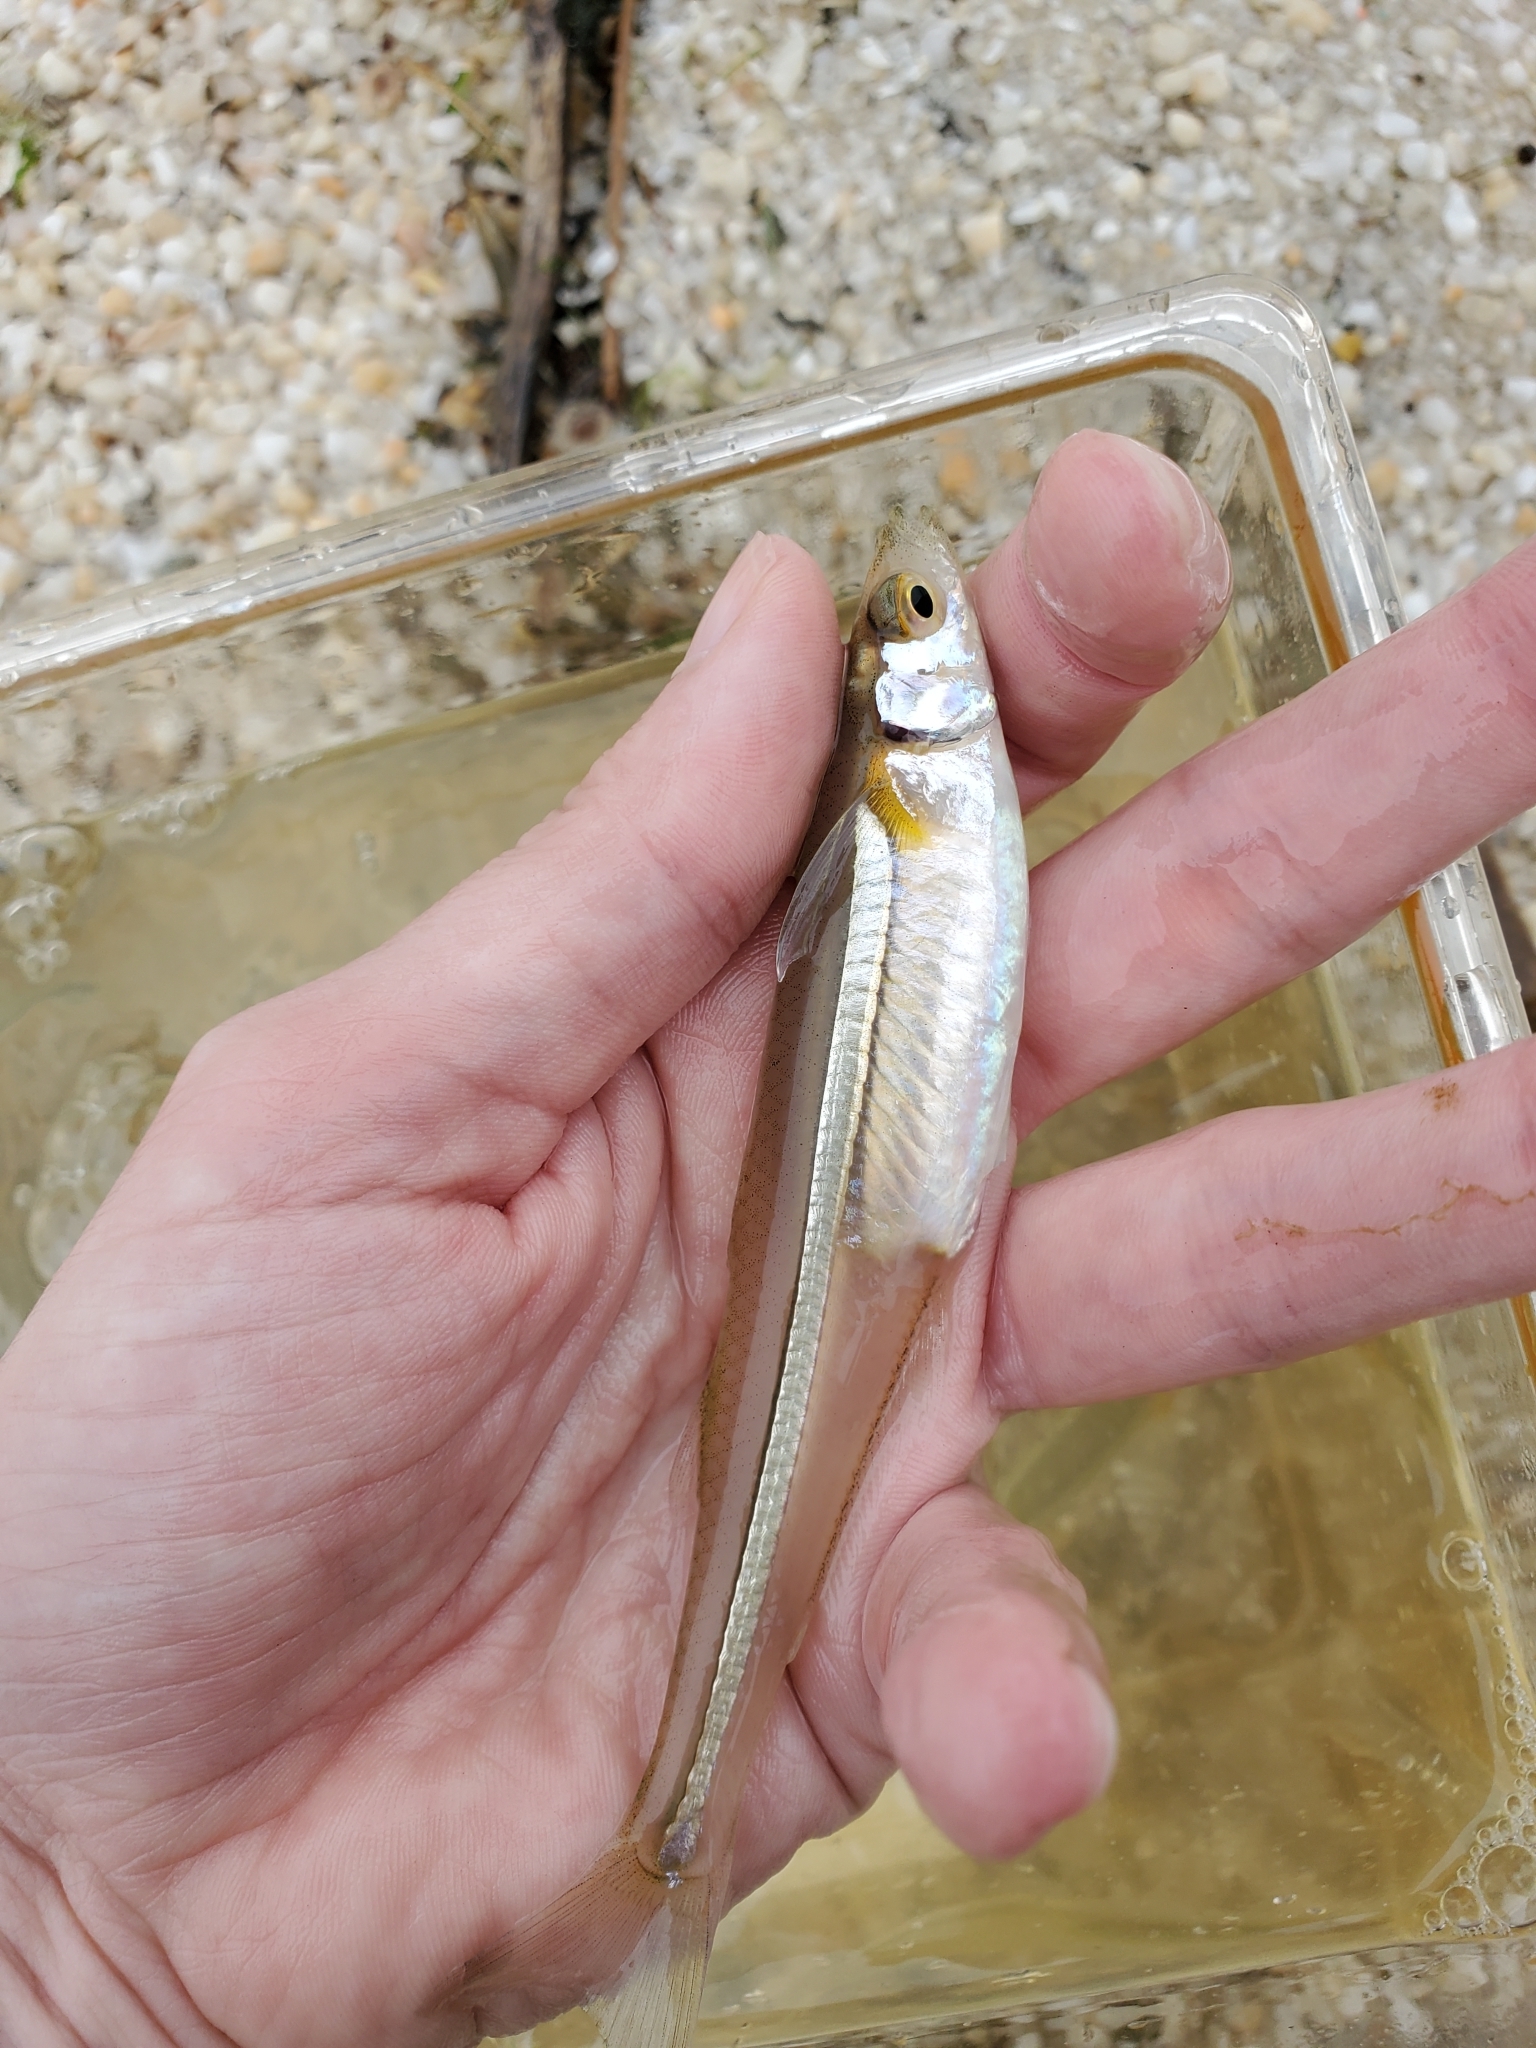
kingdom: Animalia
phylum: Chordata
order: Atheriniformes
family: Atherinopsidae
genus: Menidia
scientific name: Menidia menidia
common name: Atlantic silverside
